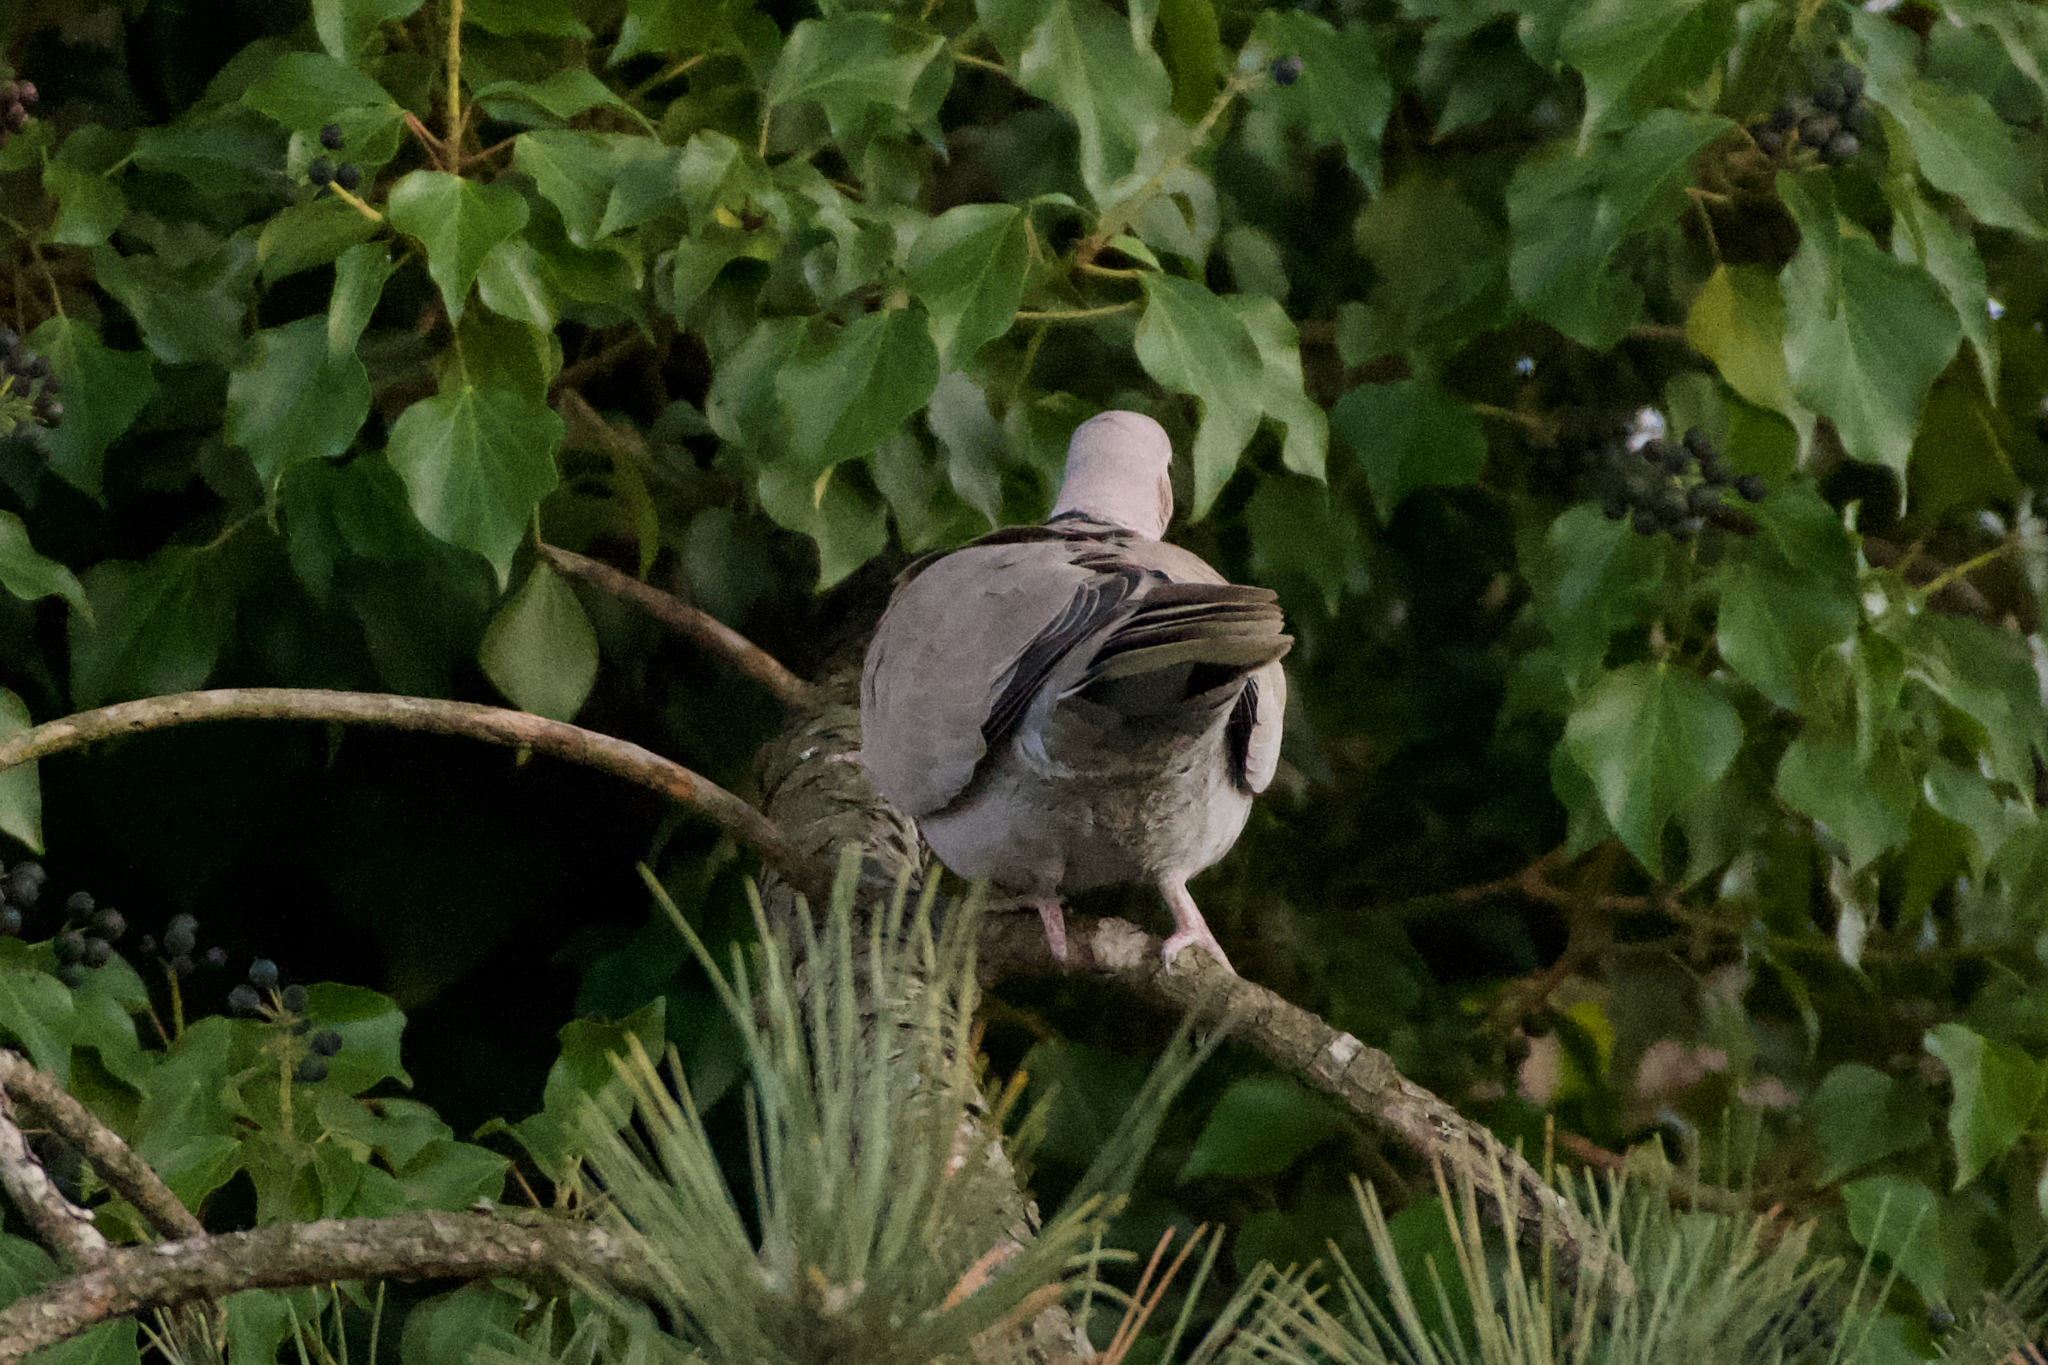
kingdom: Animalia
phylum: Chordata
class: Aves
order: Columbiformes
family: Columbidae
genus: Streptopelia
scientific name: Streptopelia decaocto
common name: Eurasian collared dove
